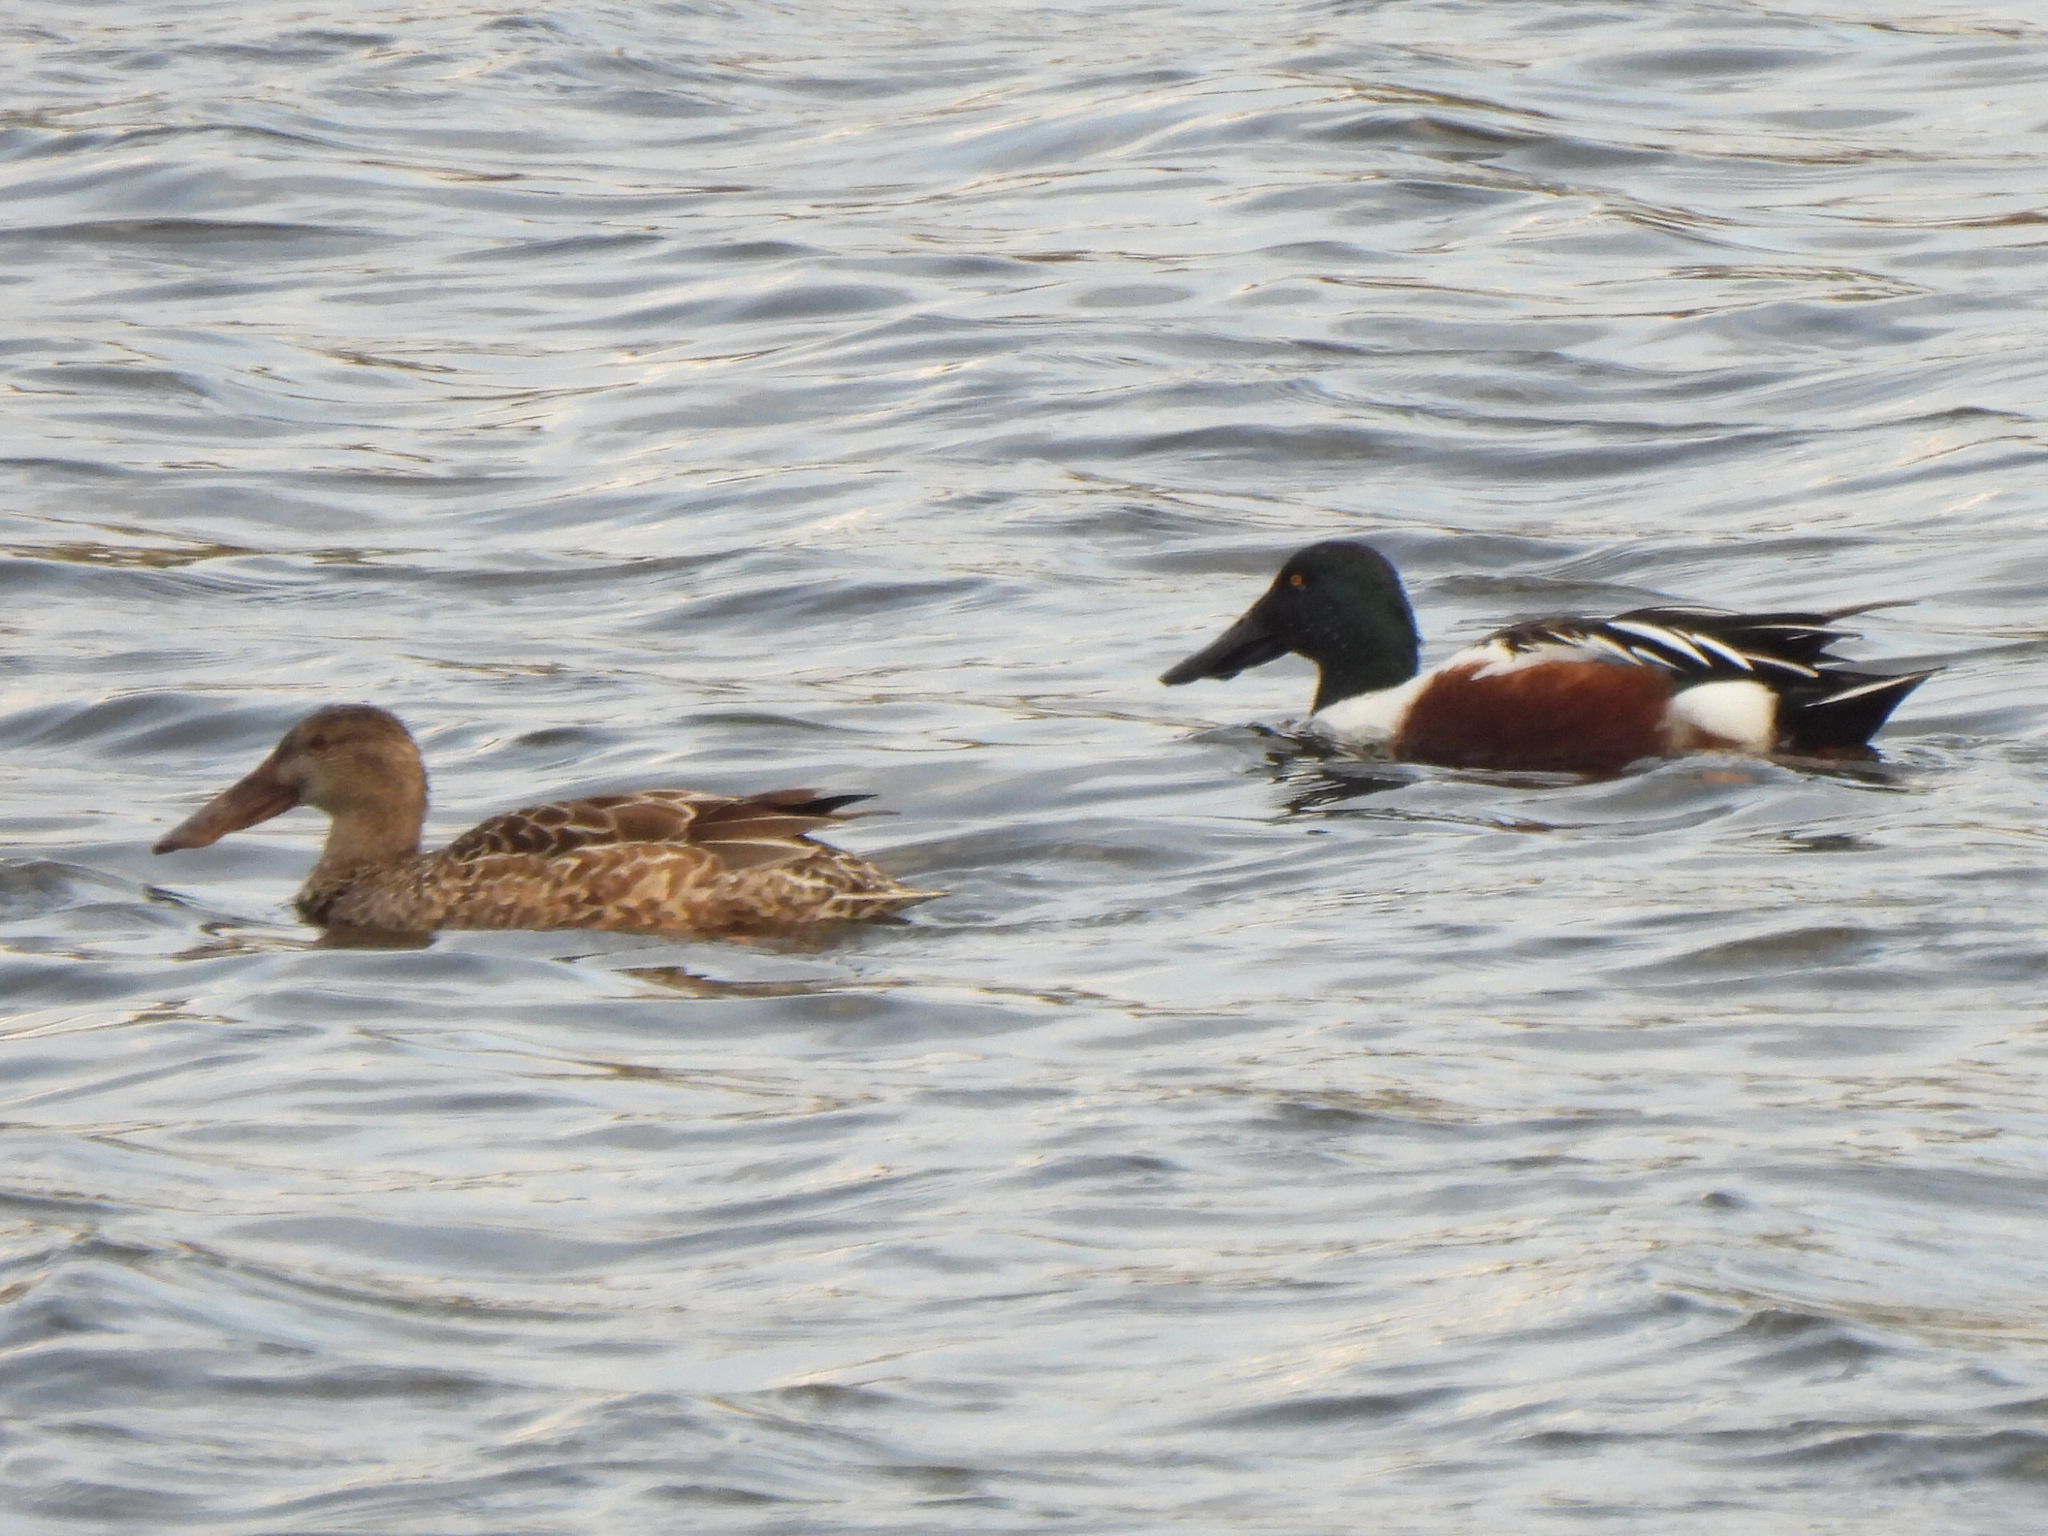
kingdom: Animalia
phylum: Chordata
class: Aves
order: Anseriformes
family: Anatidae
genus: Spatula
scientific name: Spatula clypeata
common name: Northern shoveler
